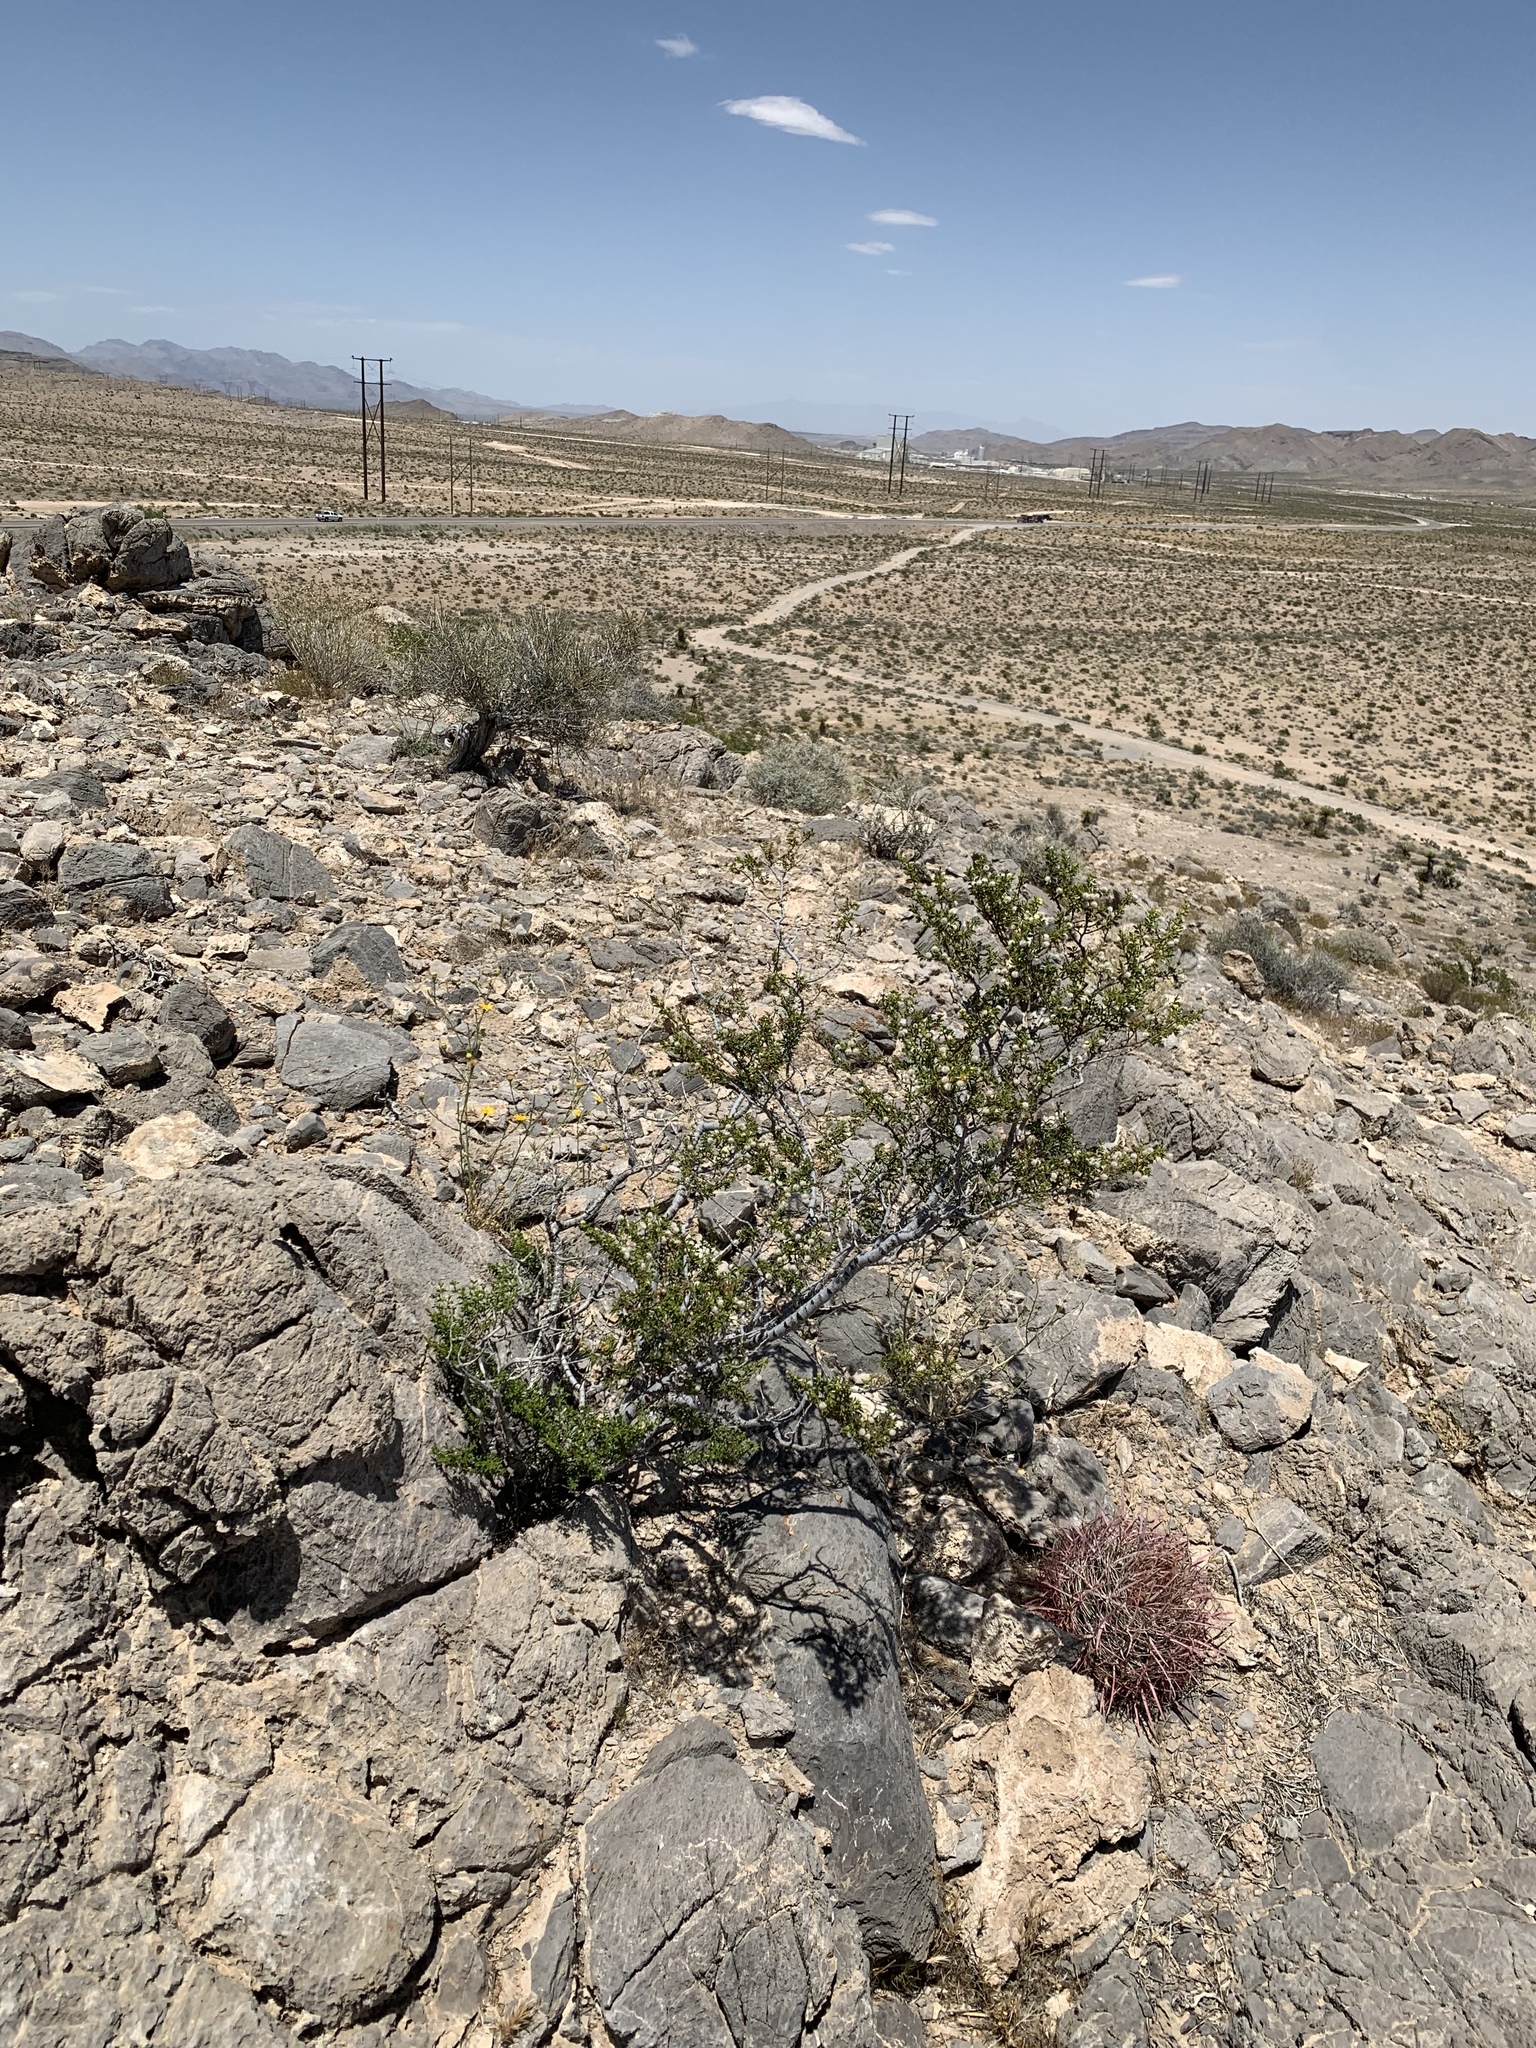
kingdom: Plantae
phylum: Tracheophyta
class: Magnoliopsida
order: Zygophyllales
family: Zygophyllaceae
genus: Larrea
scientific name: Larrea tridentata
